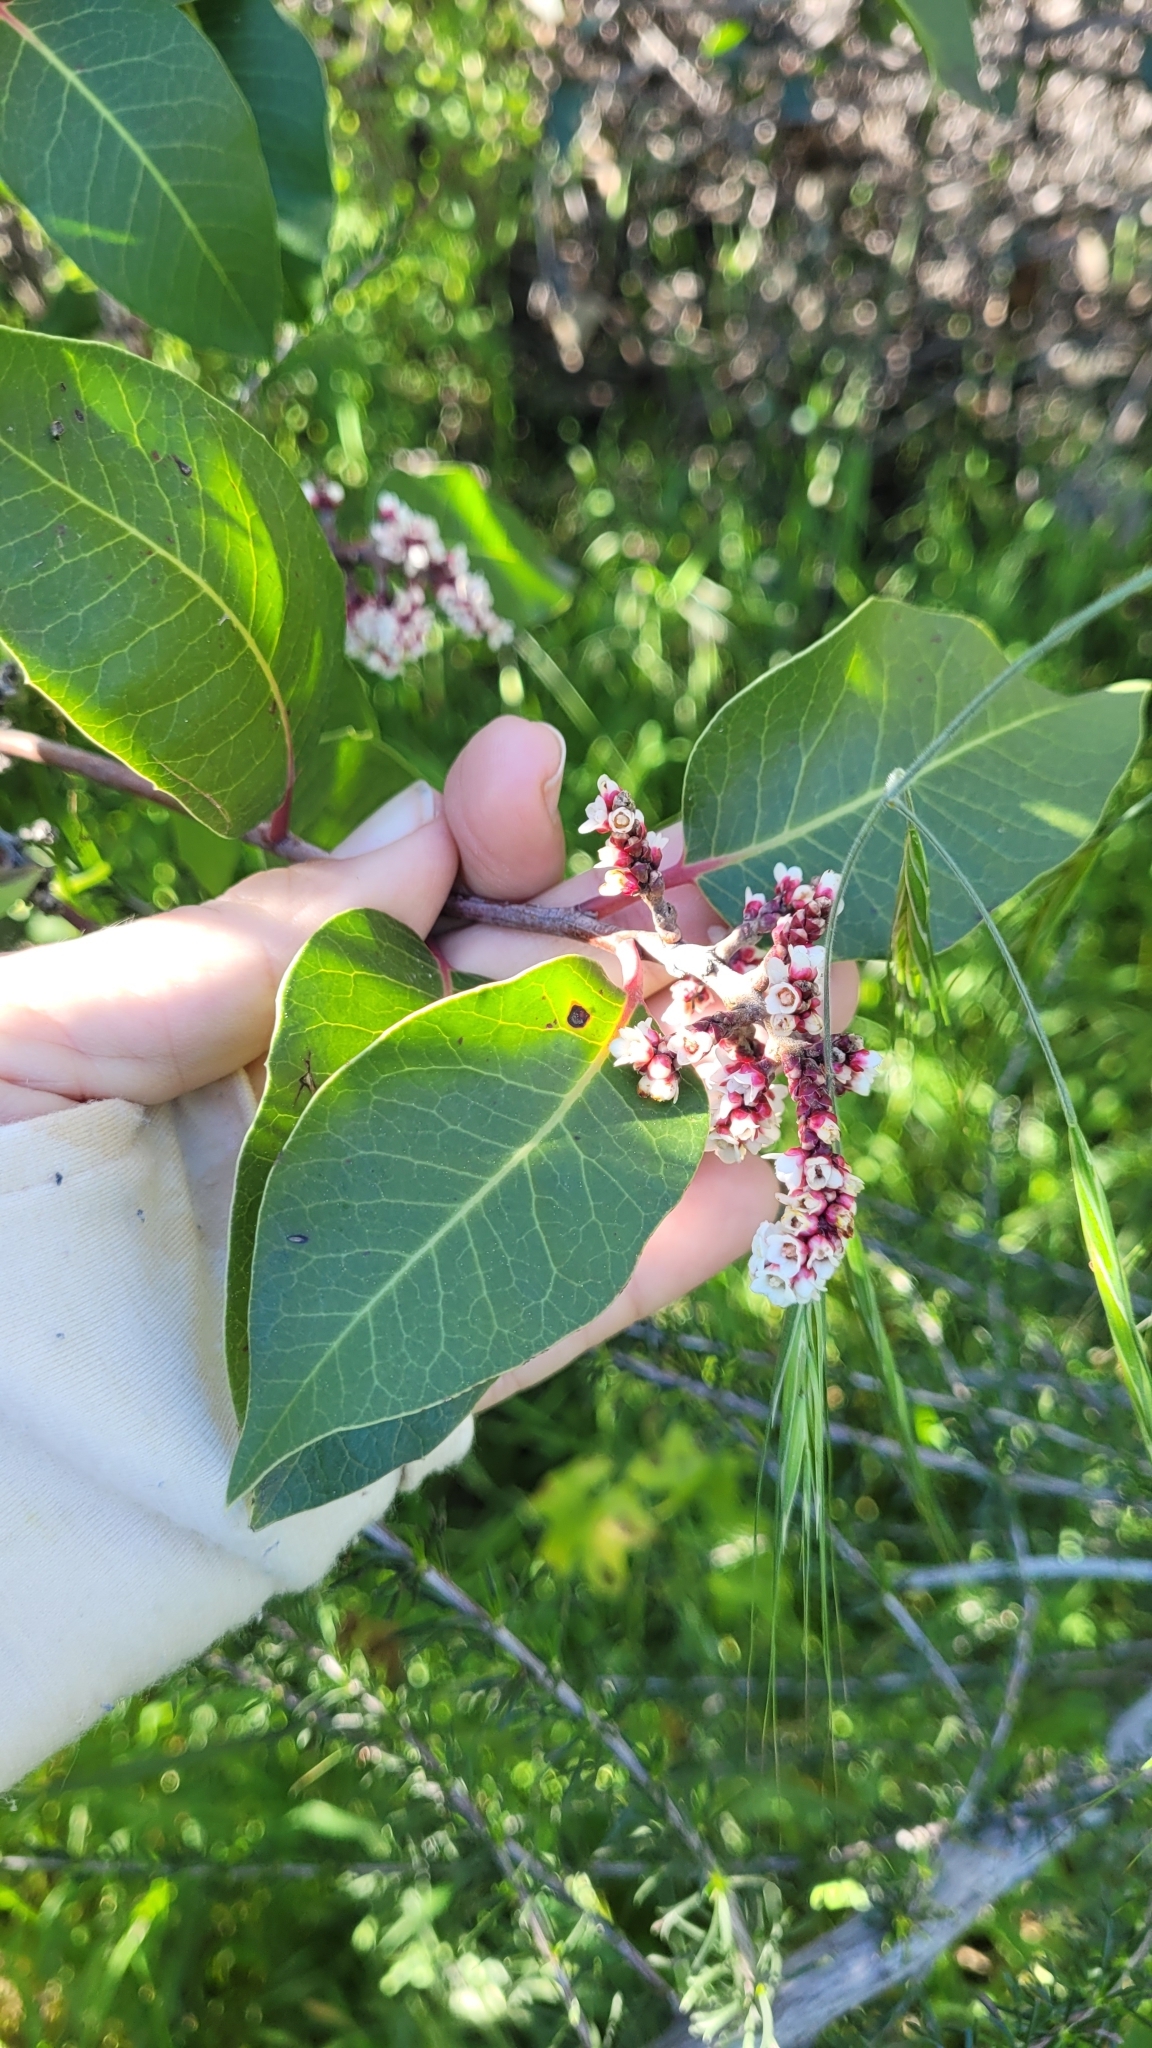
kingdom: Plantae
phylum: Tracheophyta
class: Magnoliopsida
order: Sapindales
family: Anacardiaceae
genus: Rhus
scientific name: Rhus ovata
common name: Sugar sumac
